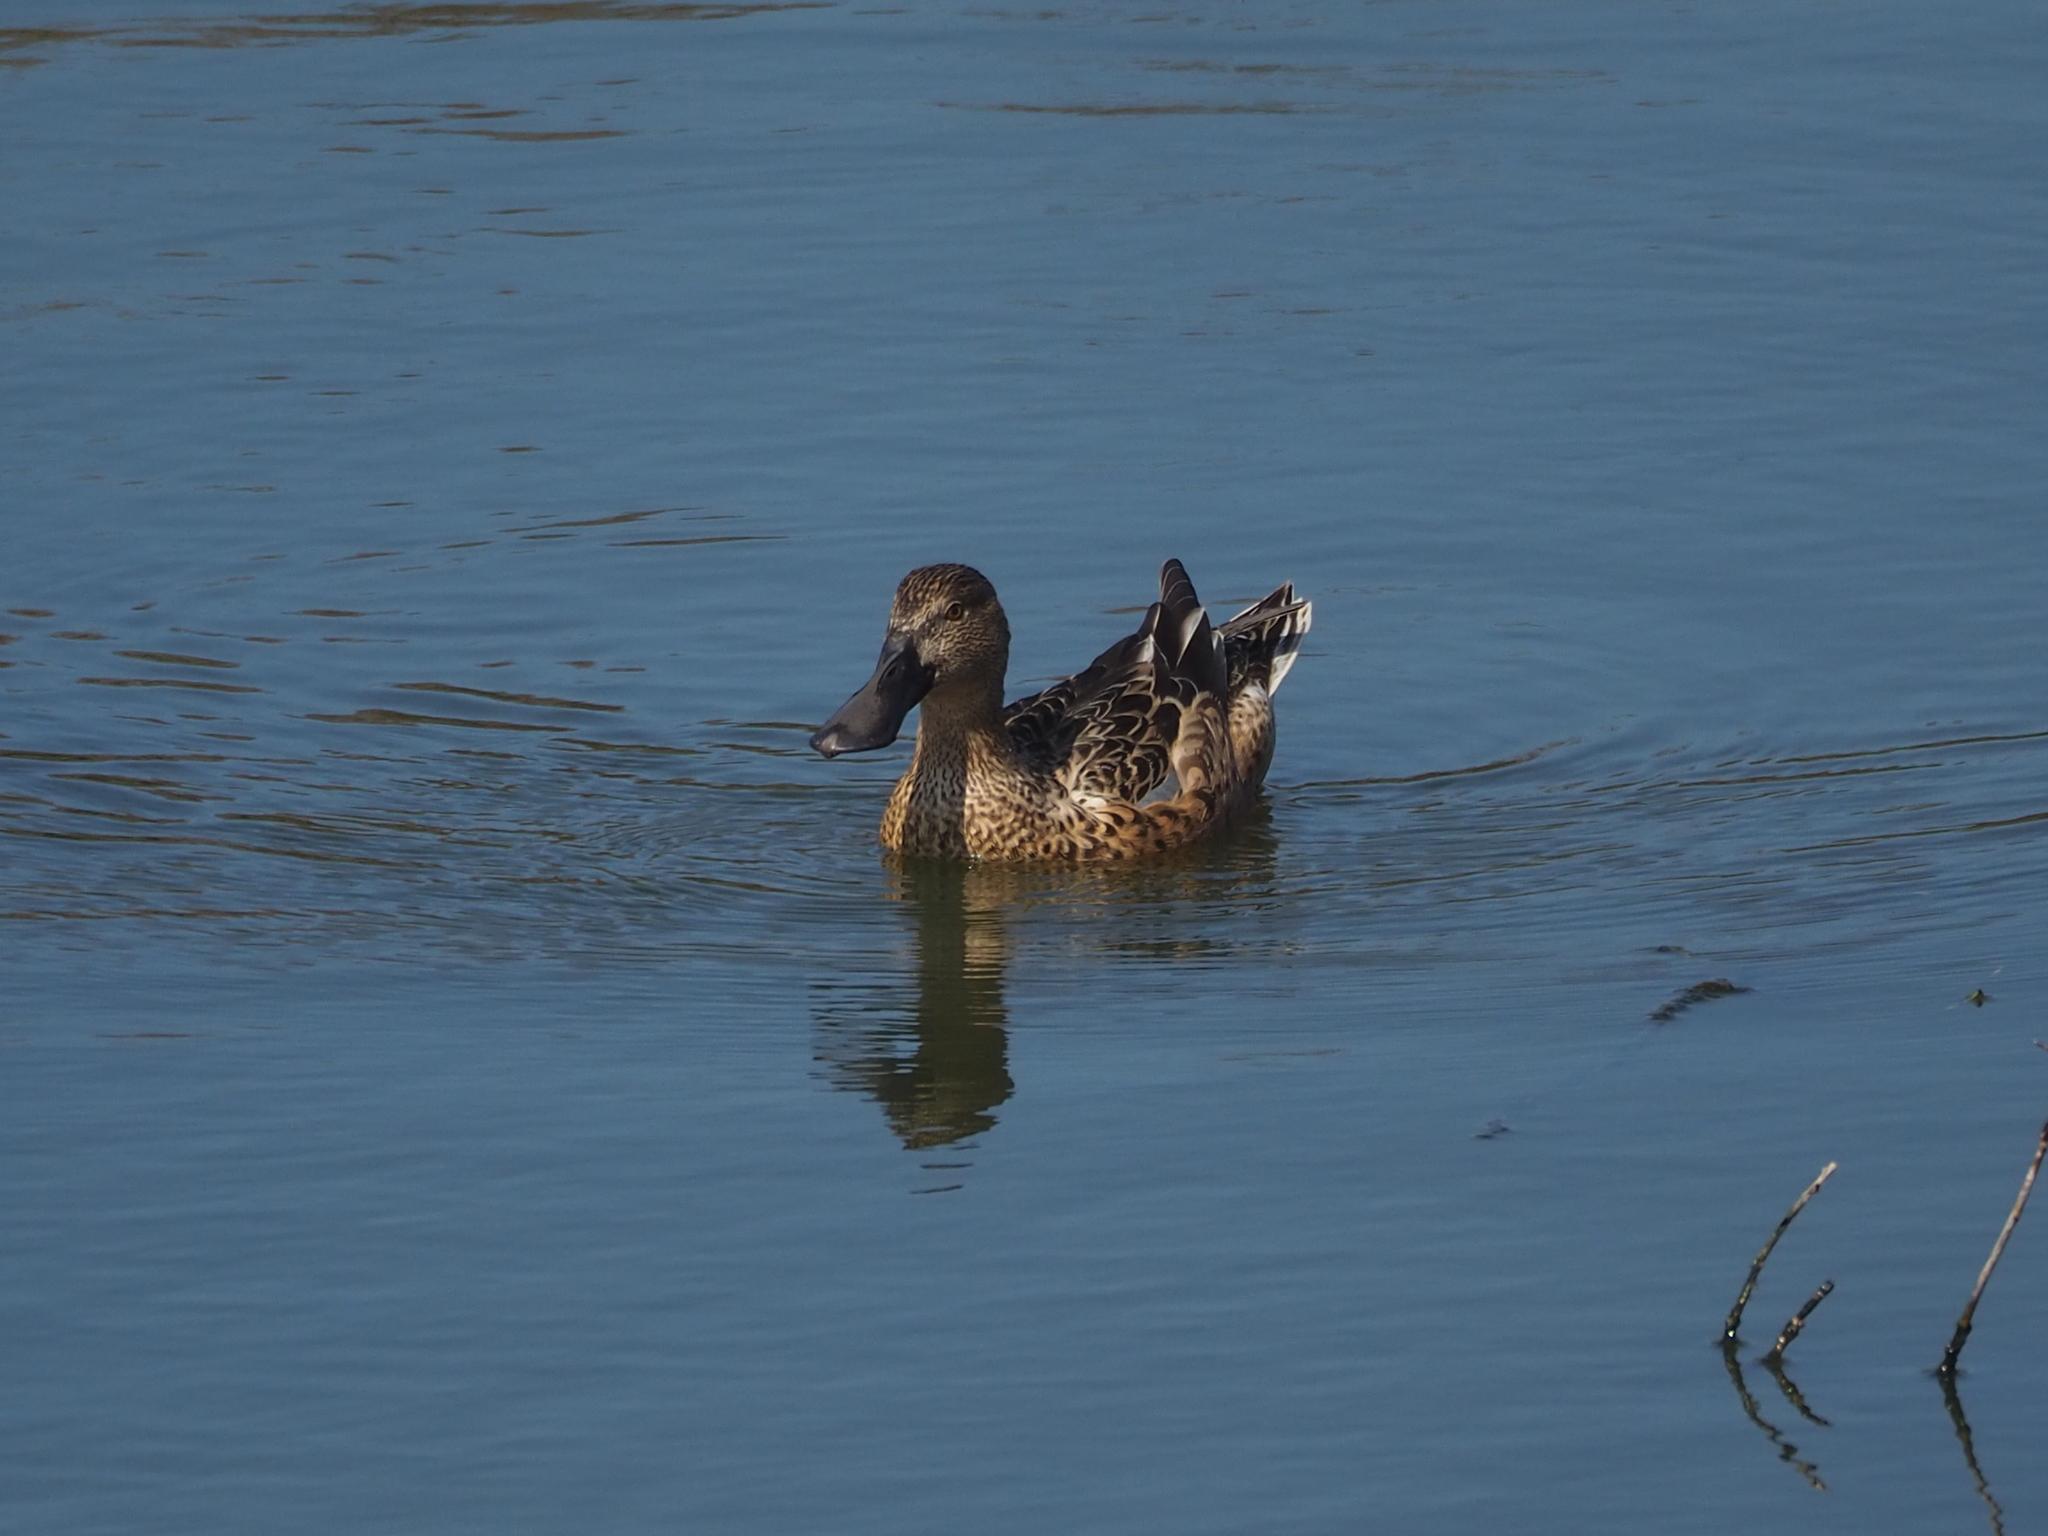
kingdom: Animalia
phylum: Chordata
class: Aves
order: Anseriformes
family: Anatidae
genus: Spatula
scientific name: Spatula clypeata
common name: Northern shoveler
